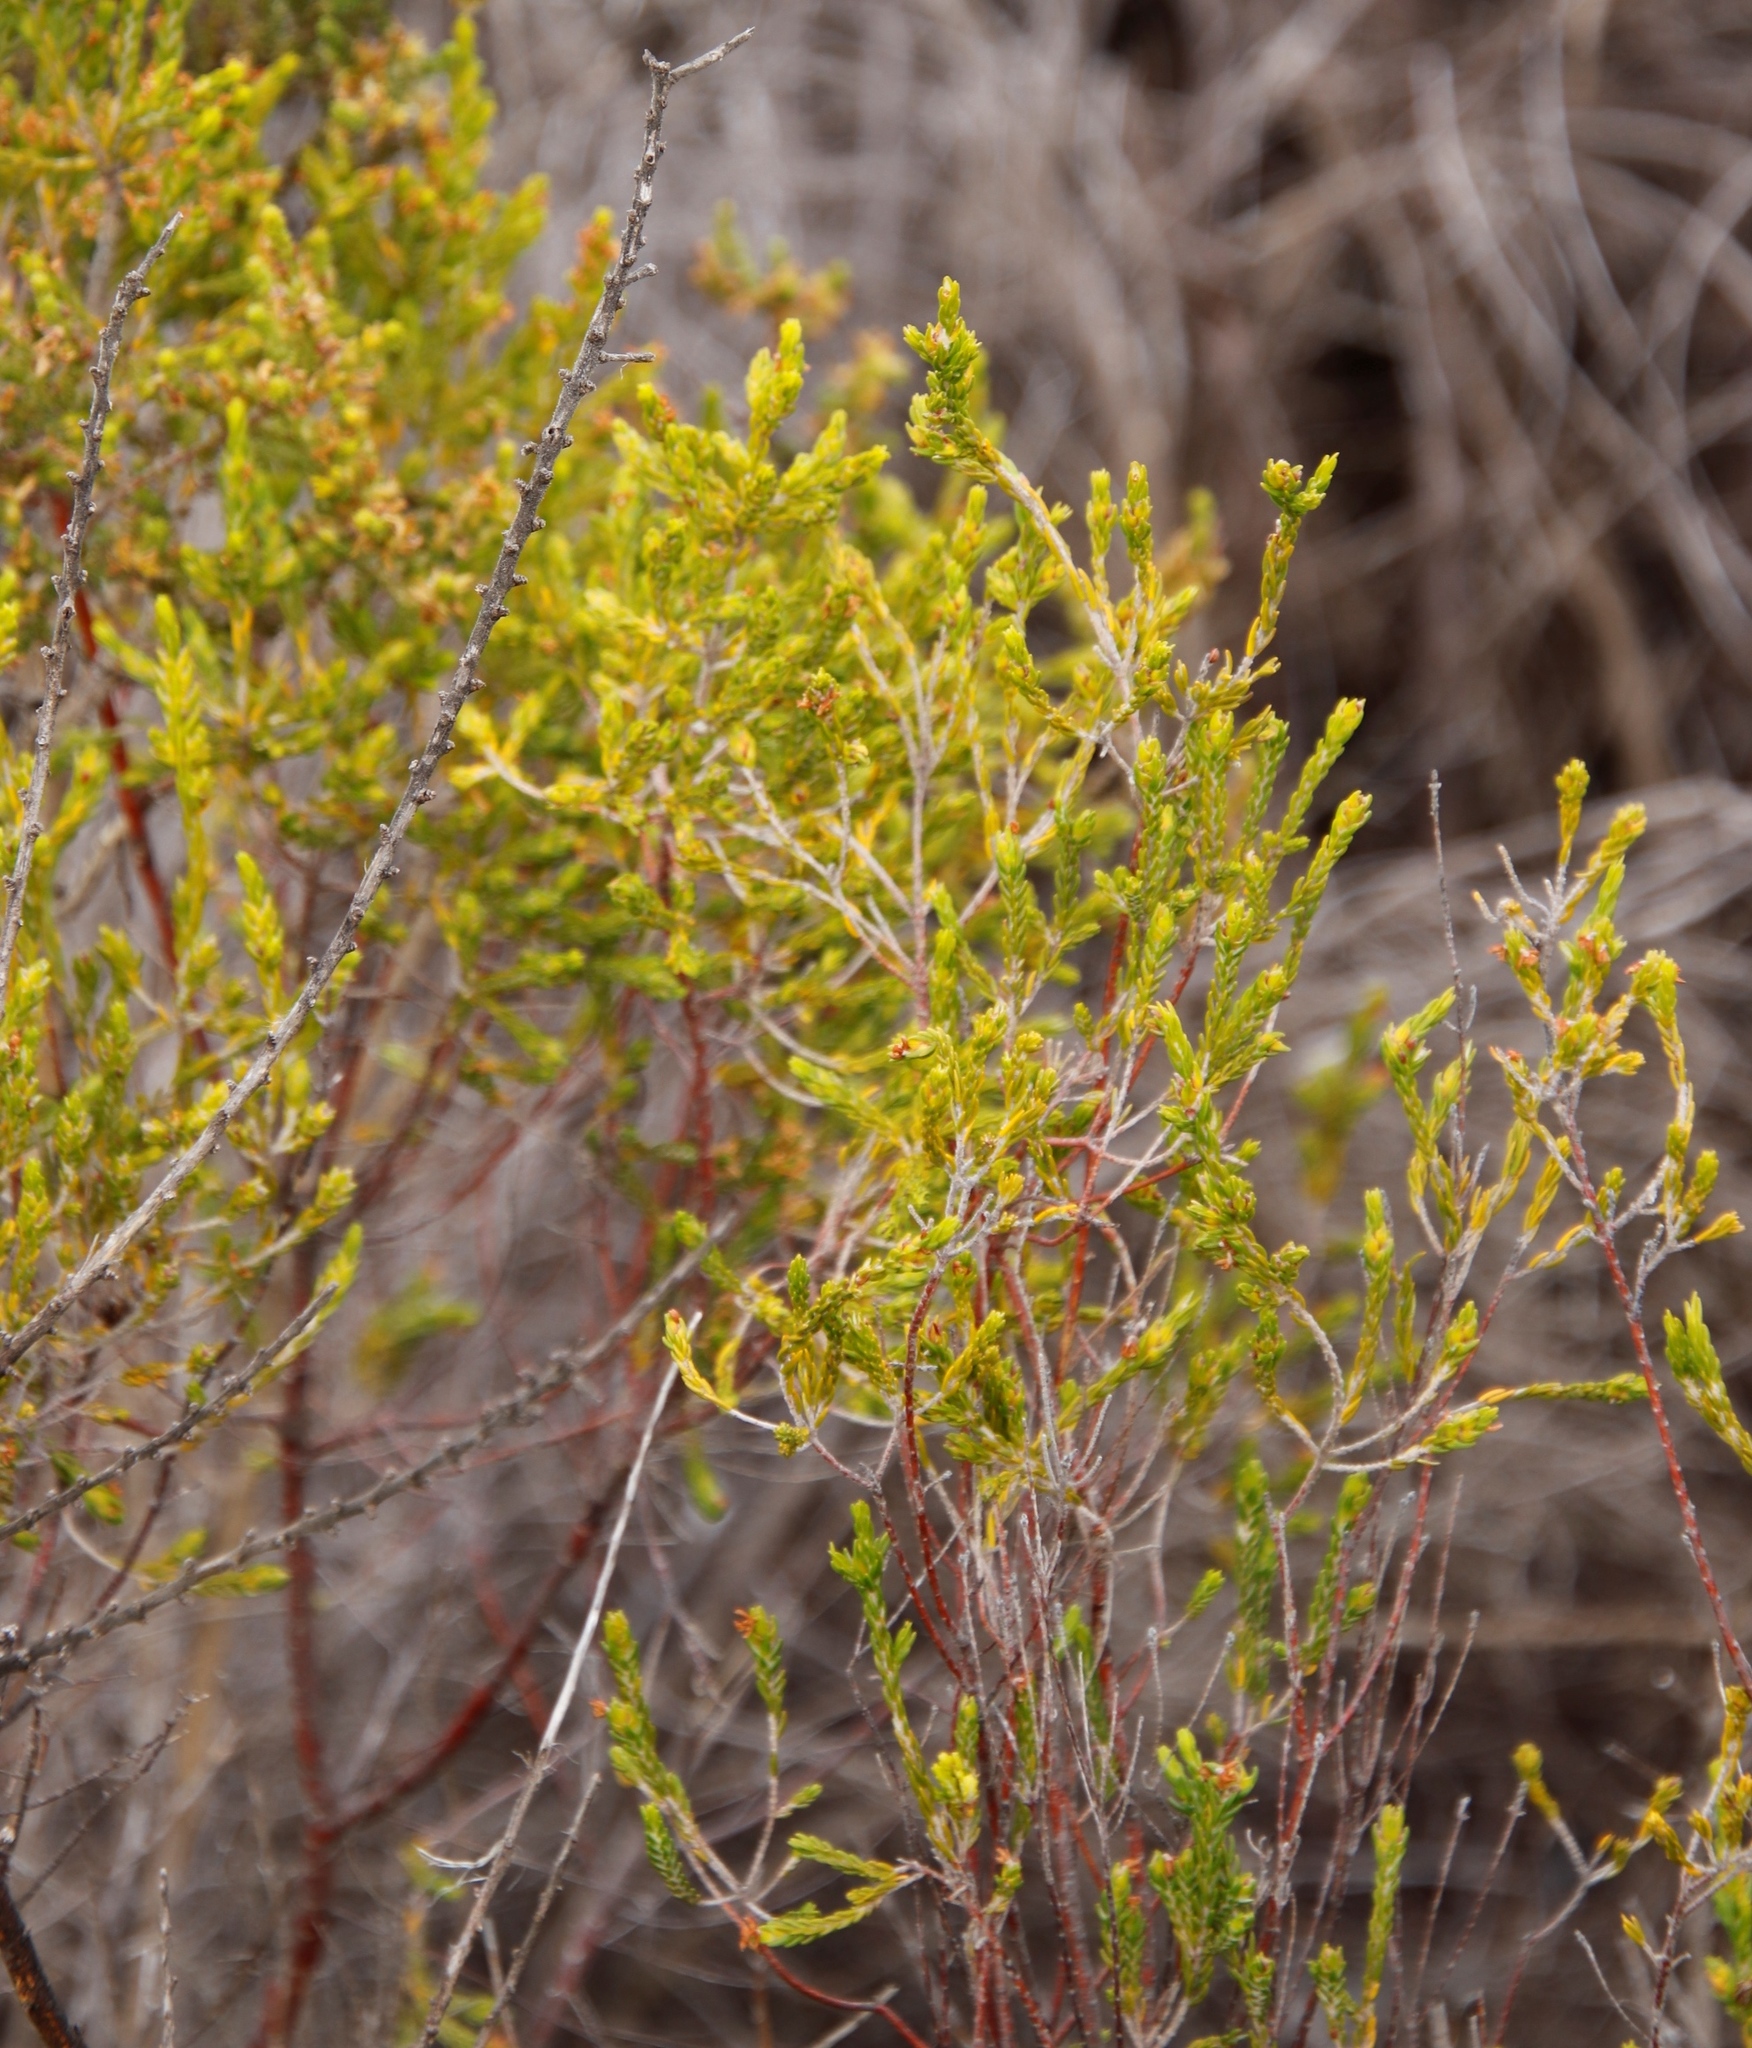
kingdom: Plantae
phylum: Tracheophyta
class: Magnoliopsida
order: Malvales
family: Thymelaeaceae
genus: Passerina
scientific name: Passerina corymbosa
